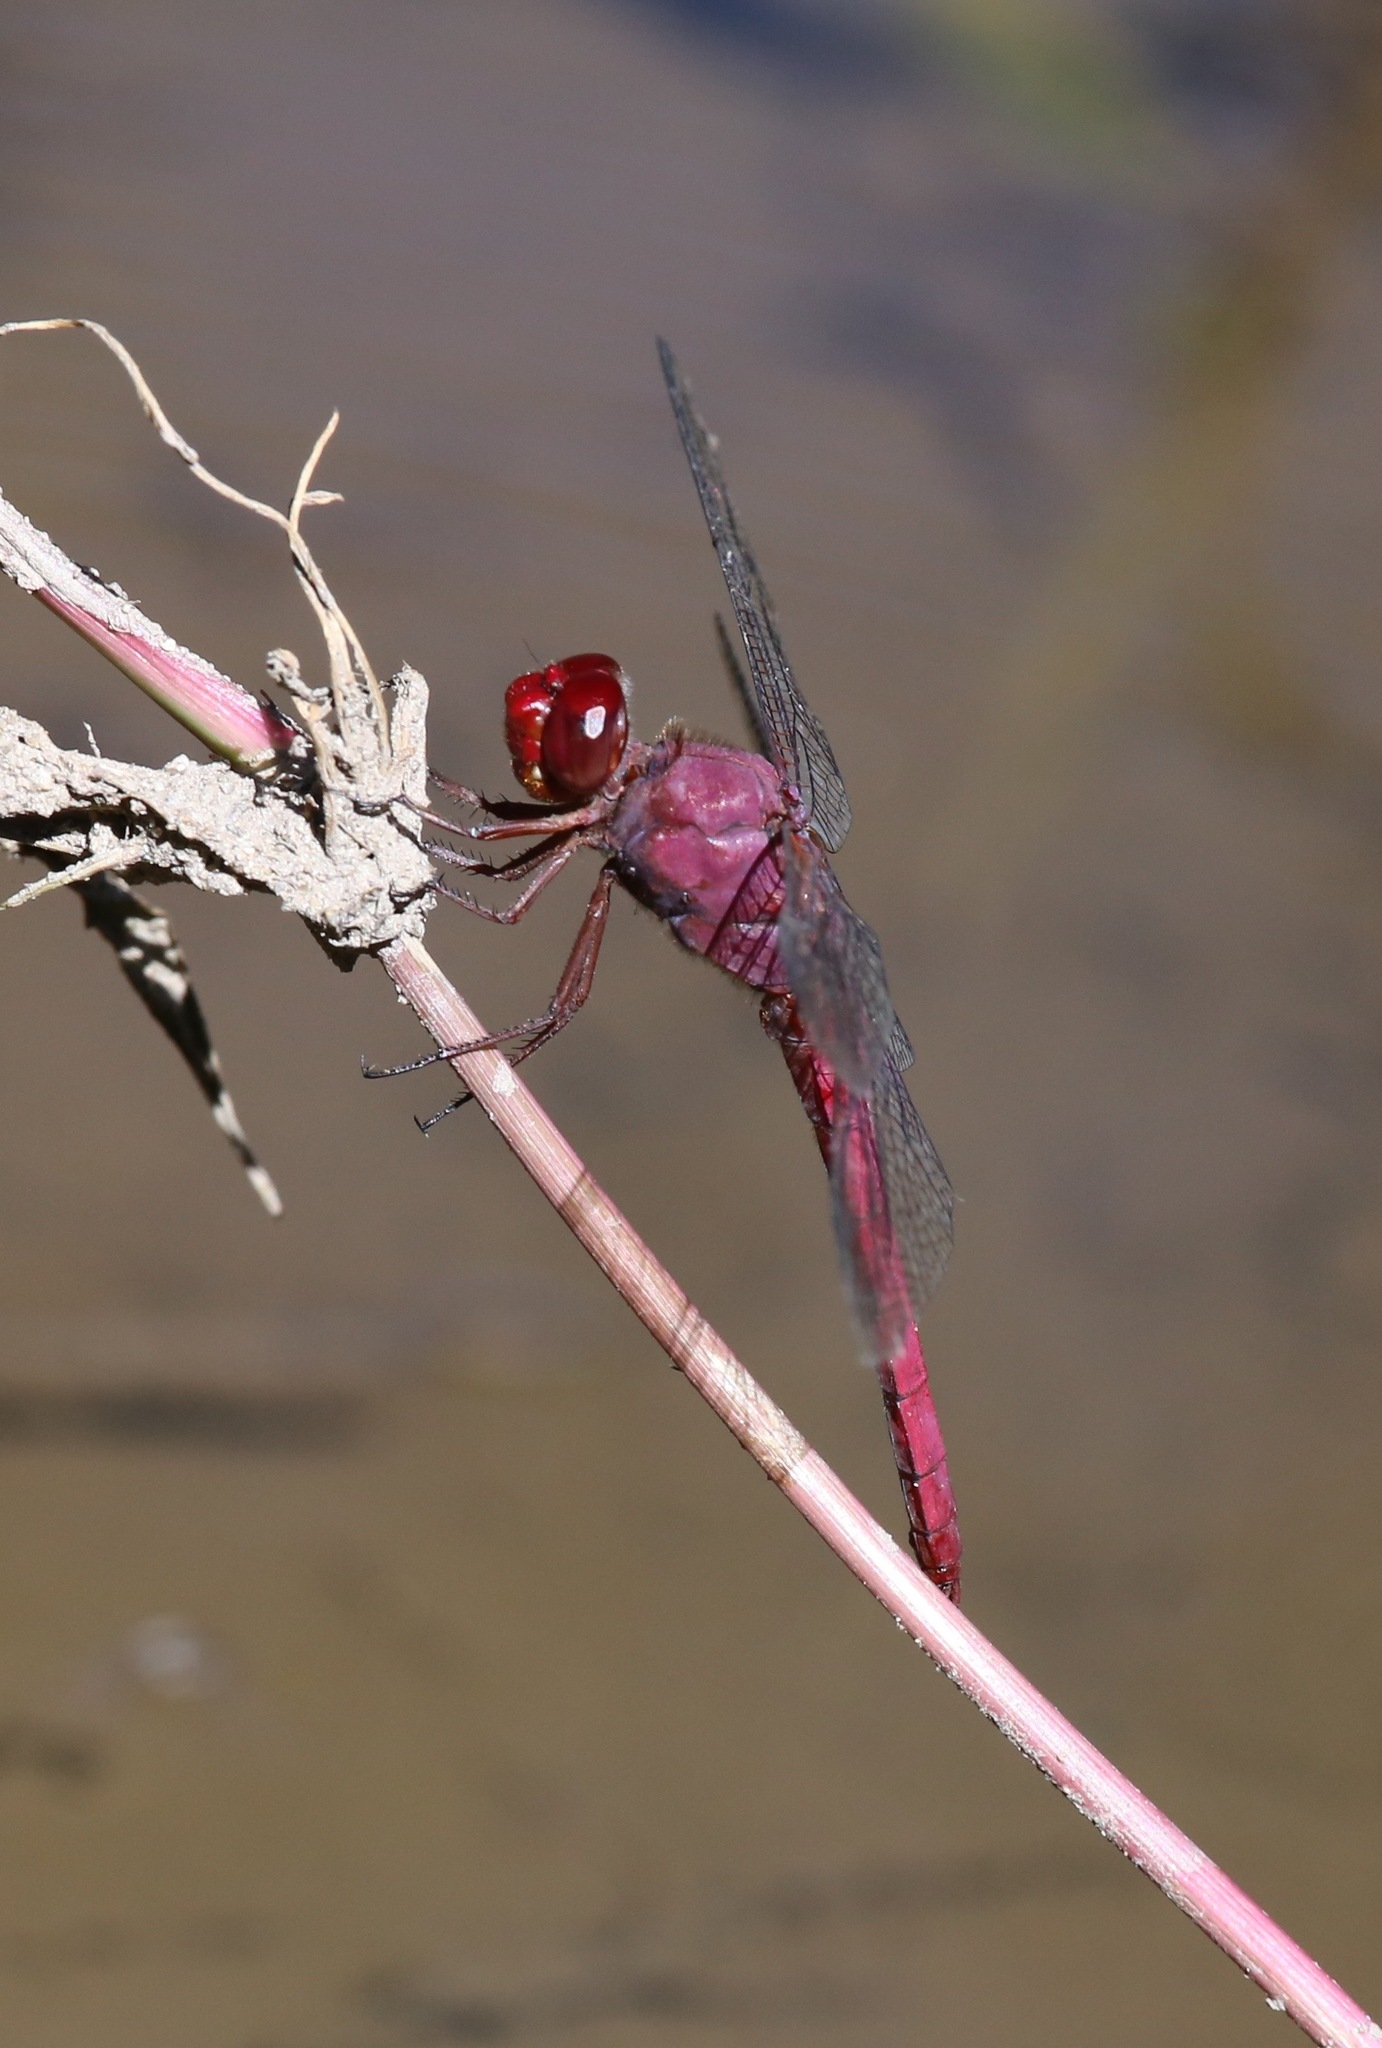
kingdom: Animalia
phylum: Arthropoda
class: Insecta
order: Odonata
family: Libellulidae
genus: Orthemis
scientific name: Orthemis discolor
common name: Carmine skimmer
